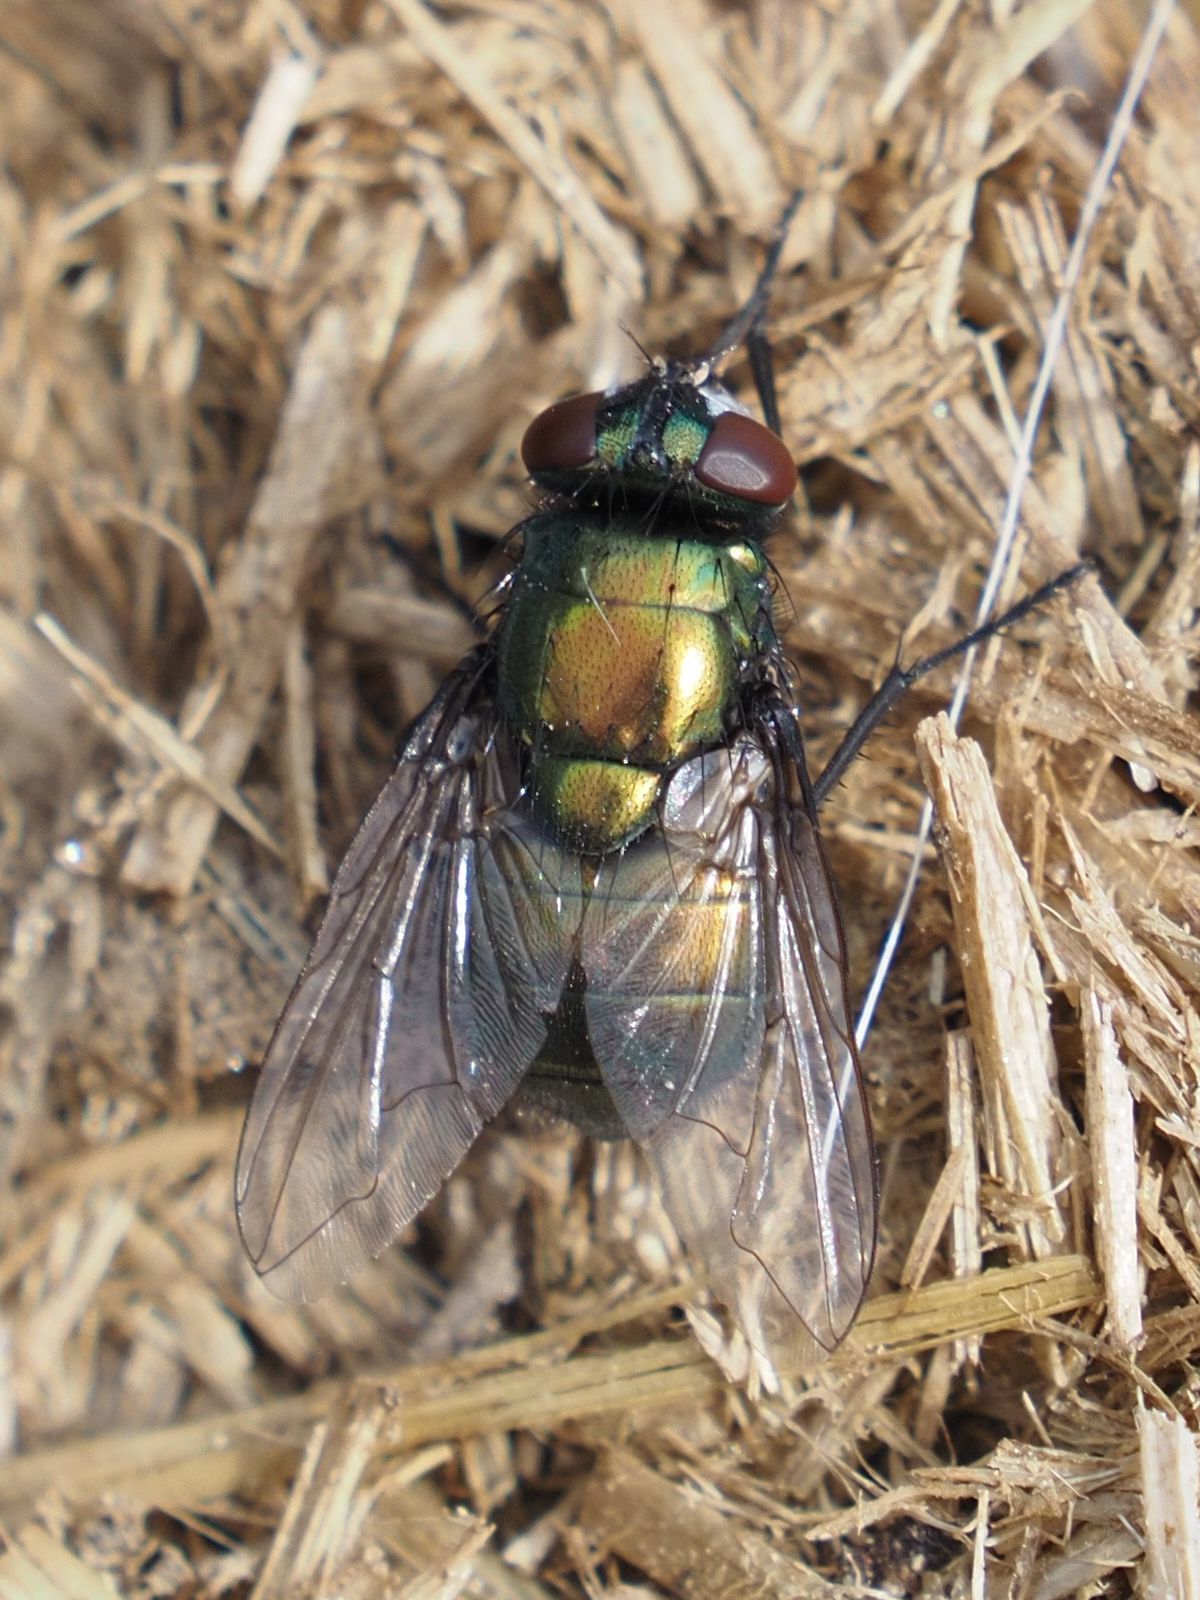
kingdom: Animalia
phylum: Arthropoda
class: Insecta
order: Diptera
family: Muscidae
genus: Neomyia
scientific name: Neomyia cornicina
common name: House fly
